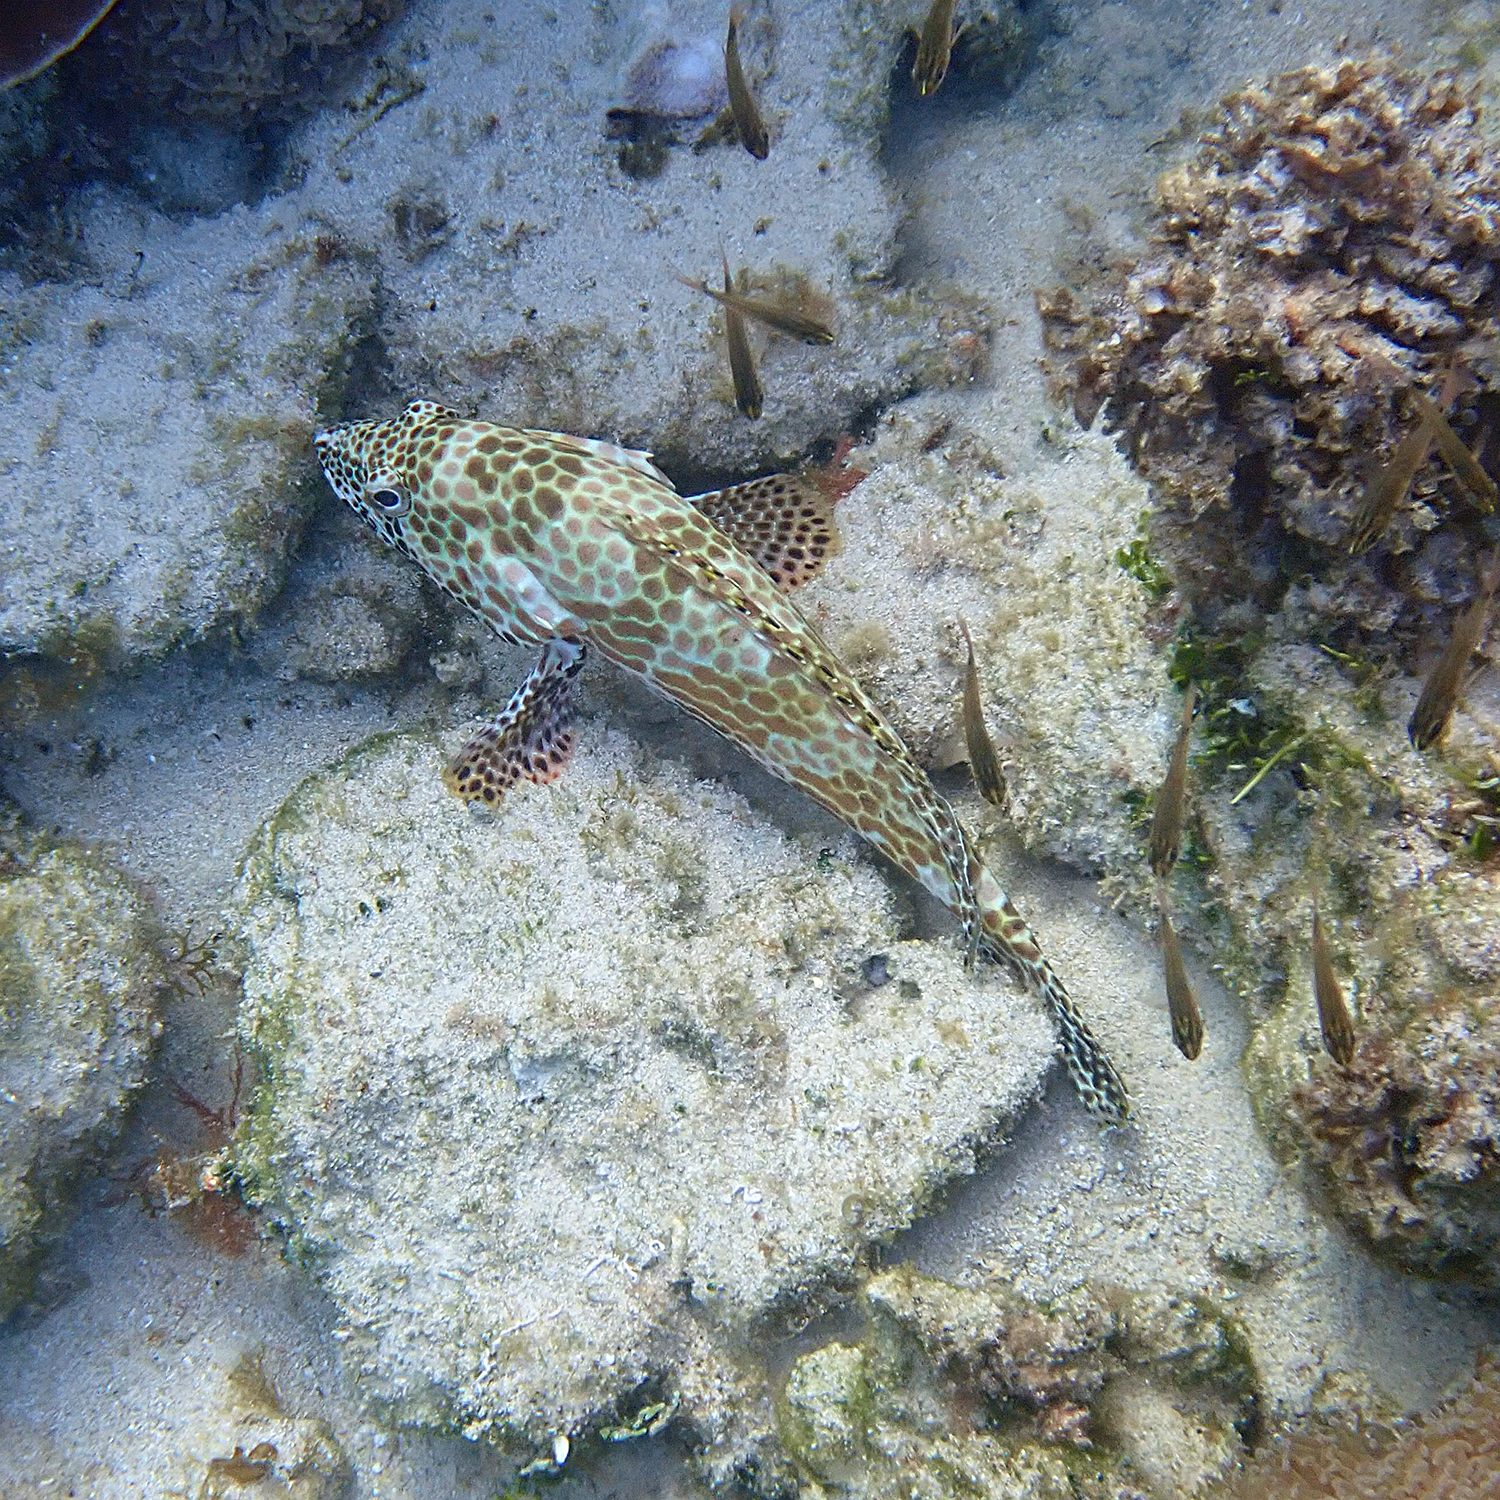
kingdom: Animalia
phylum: Chordata
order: Perciformes
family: Serranidae
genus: Epinephelus
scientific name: Epinephelus merra
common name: Honeycomb grouper
